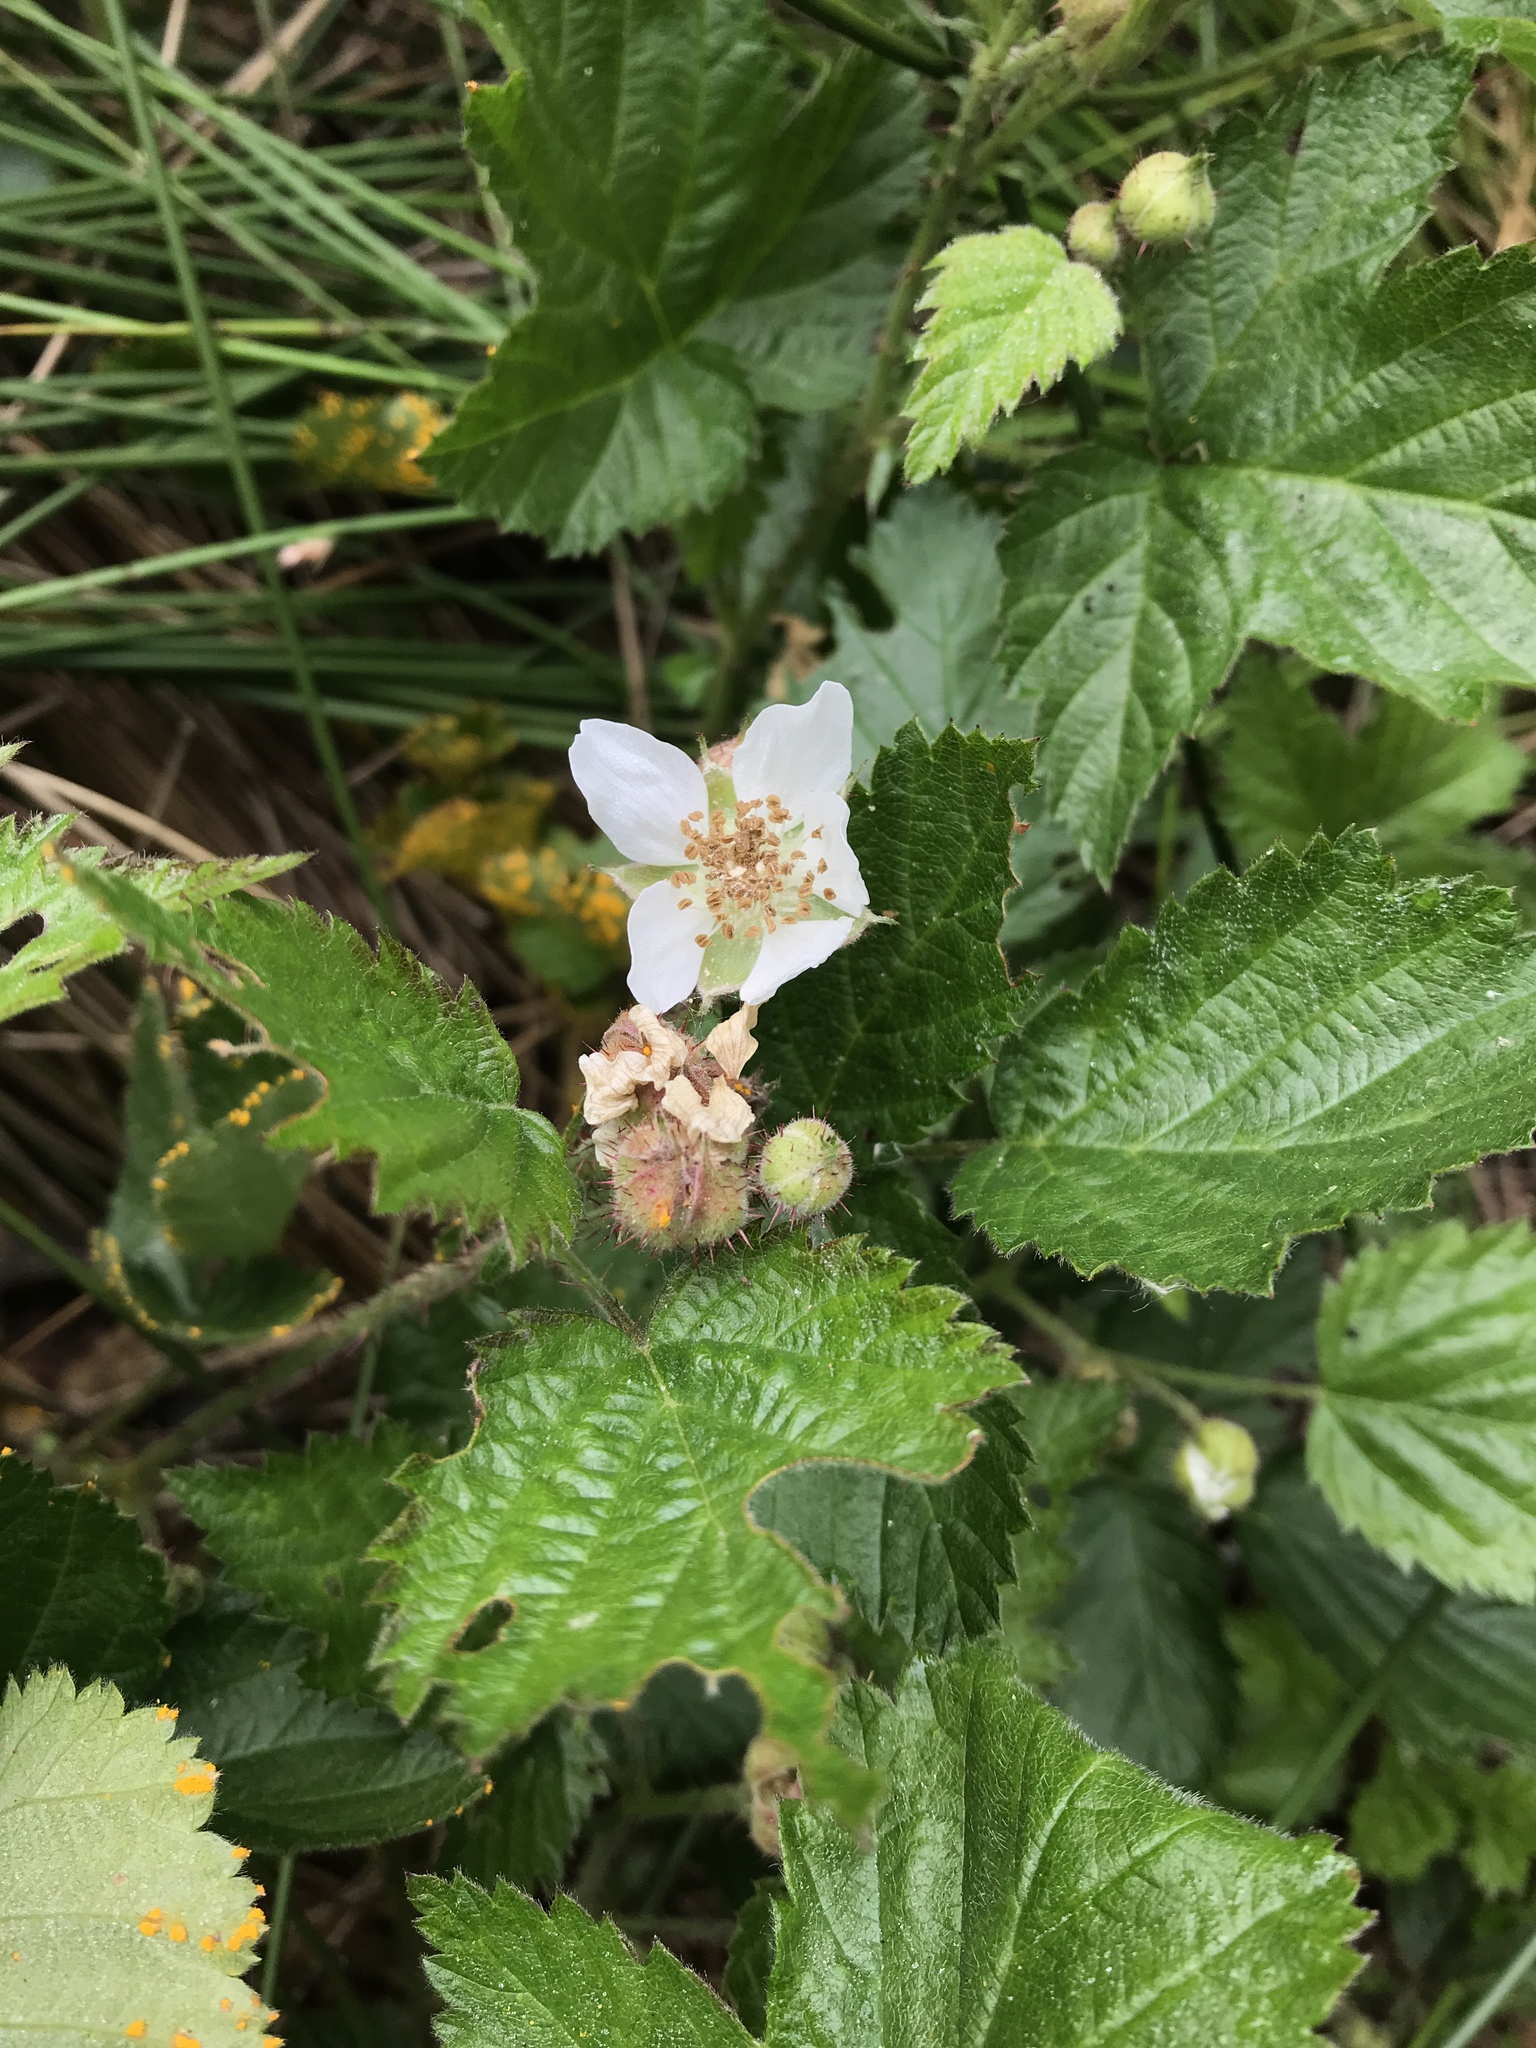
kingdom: Plantae
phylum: Tracheophyta
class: Magnoliopsida
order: Rosales
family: Rosaceae
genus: Rubus
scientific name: Rubus ursinus
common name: Pacific blackberry
